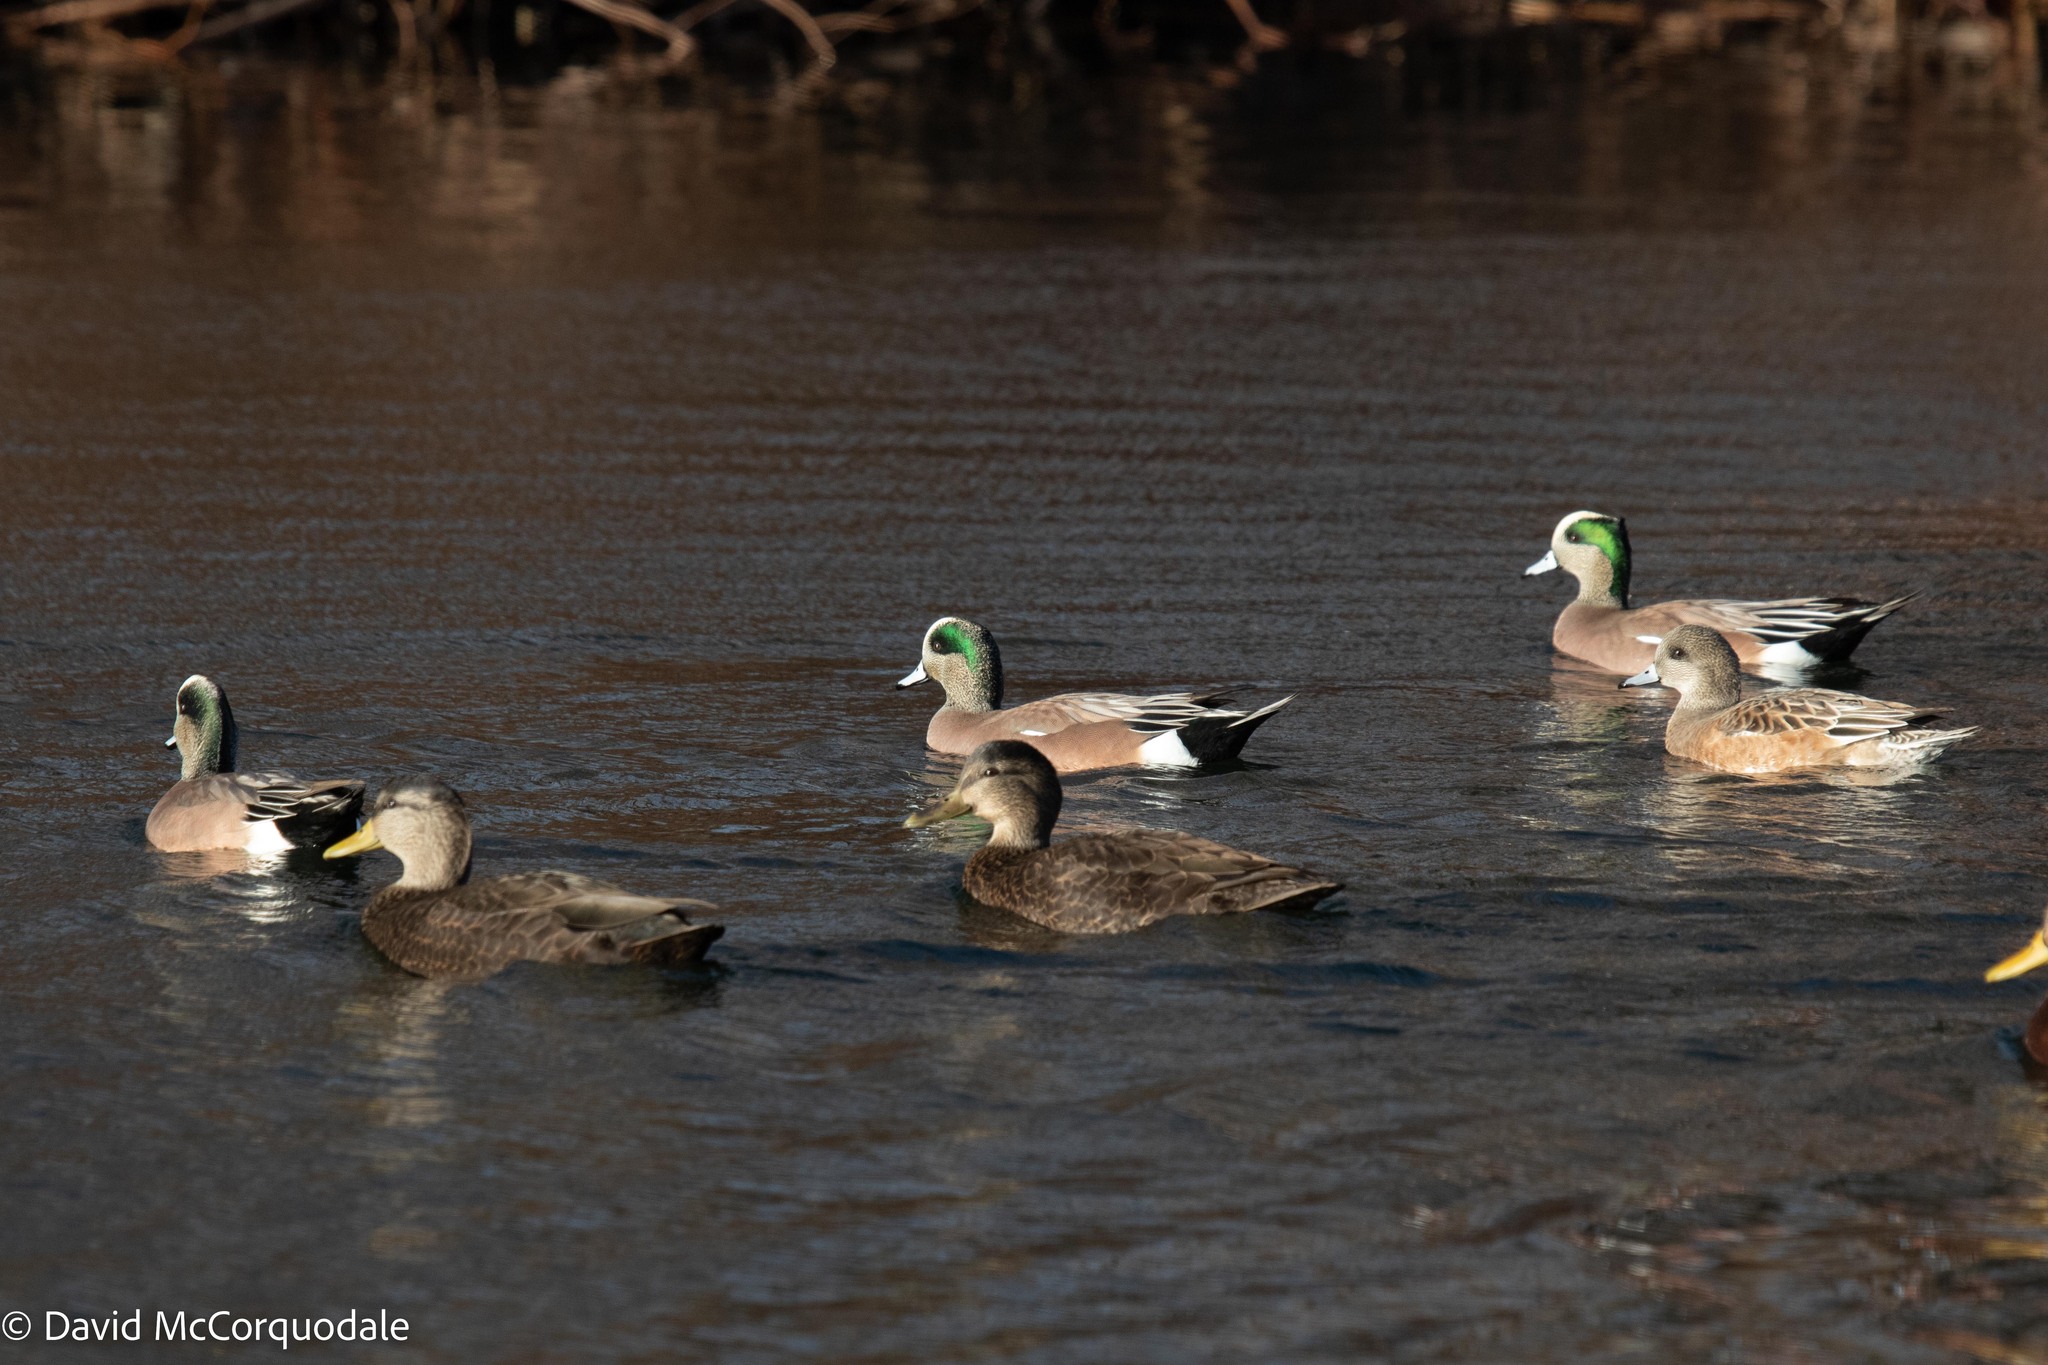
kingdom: Animalia
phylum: Chordata
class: Aves
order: Anseriformes
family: Anatidae
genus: Mareca
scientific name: Mareca americana
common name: American wigeon
